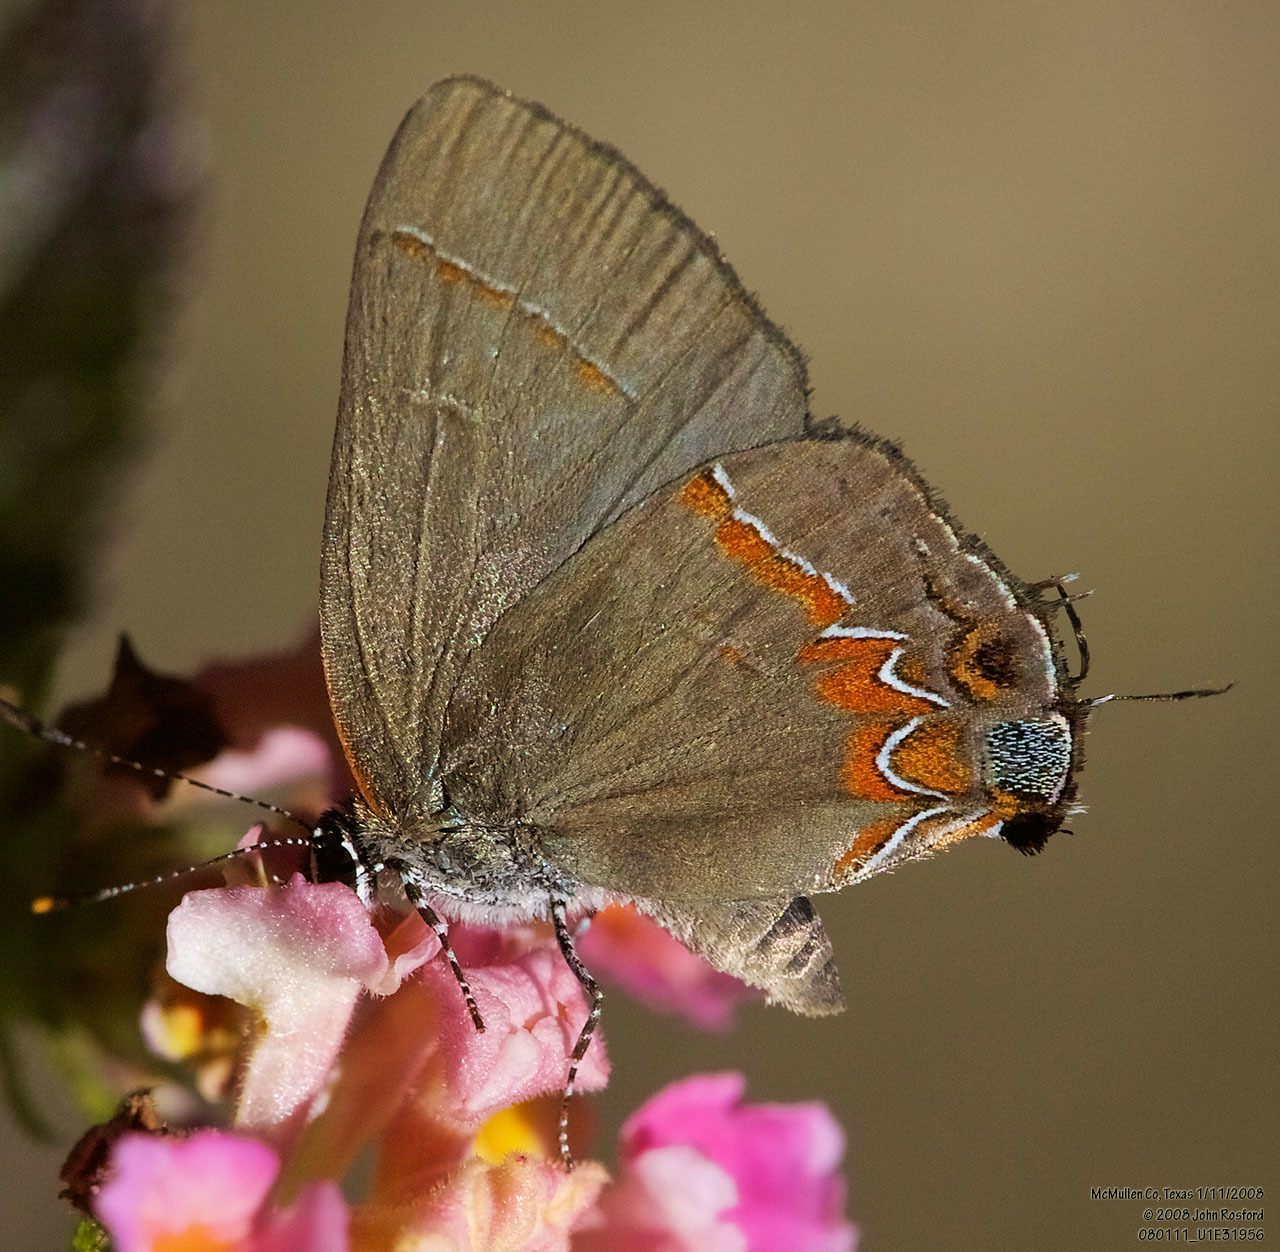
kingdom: Animalia
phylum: Arthropoda
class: Insecta
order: Lepidoptera
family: Lycaenidae
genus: Calycopis
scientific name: Calycopis isobeon
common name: Dusky-blue groundstreak
